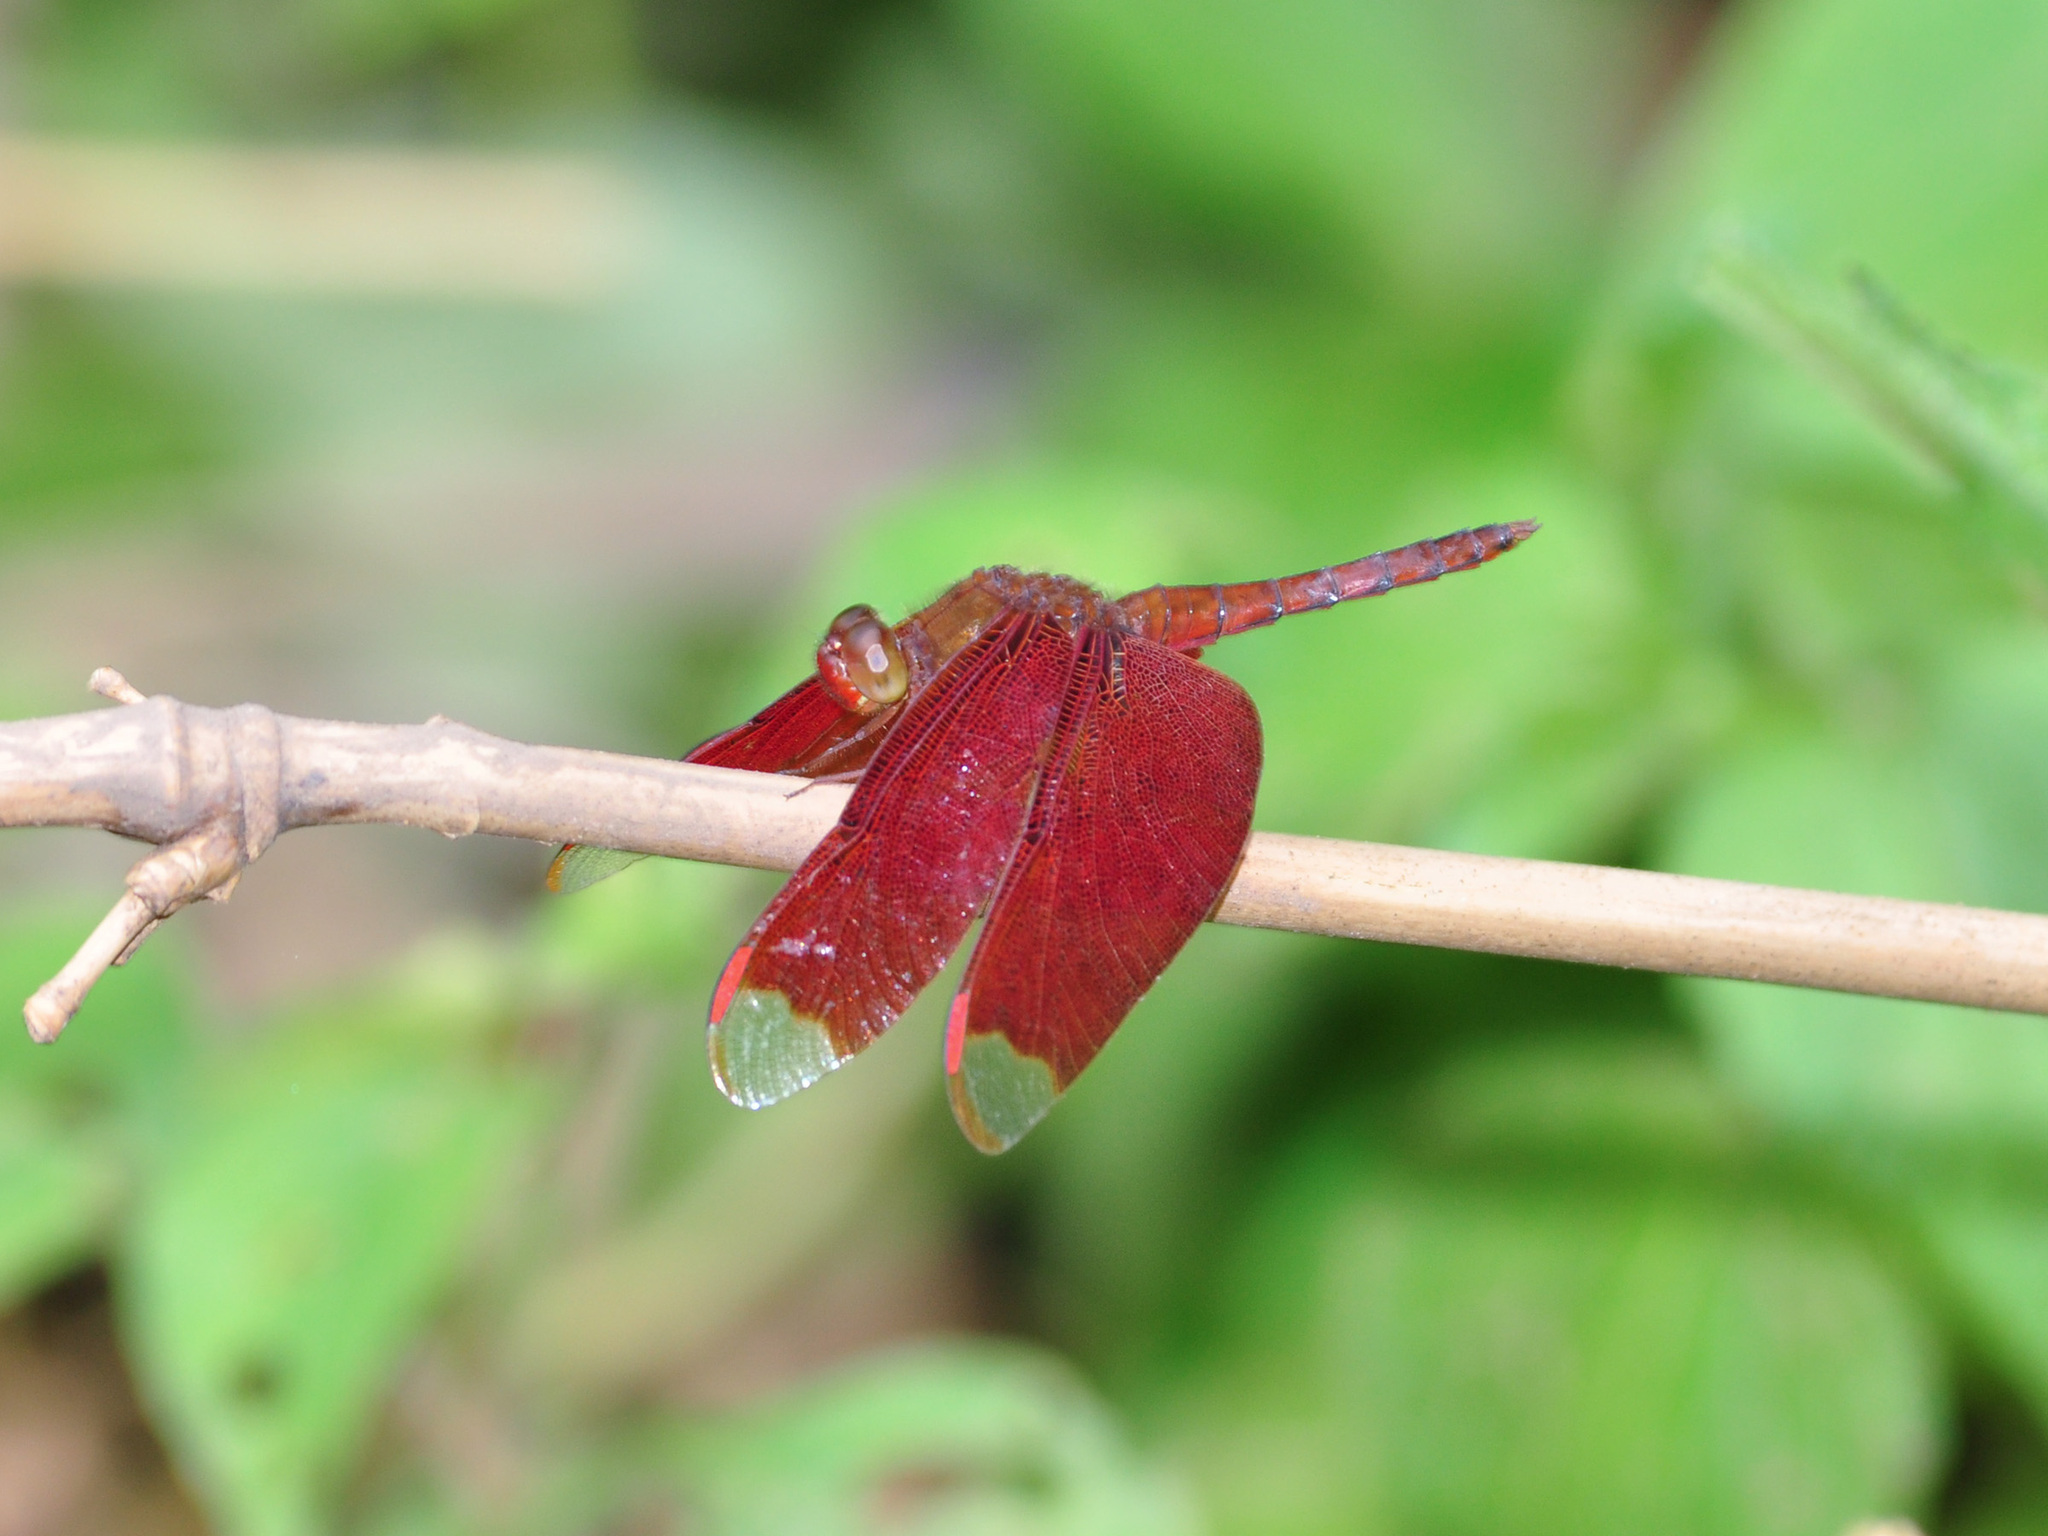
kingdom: Animalia
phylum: Arthropoda
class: Insecta
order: Odonata
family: Libellulidae
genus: Neurothemis
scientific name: Neurothemis fulvia
